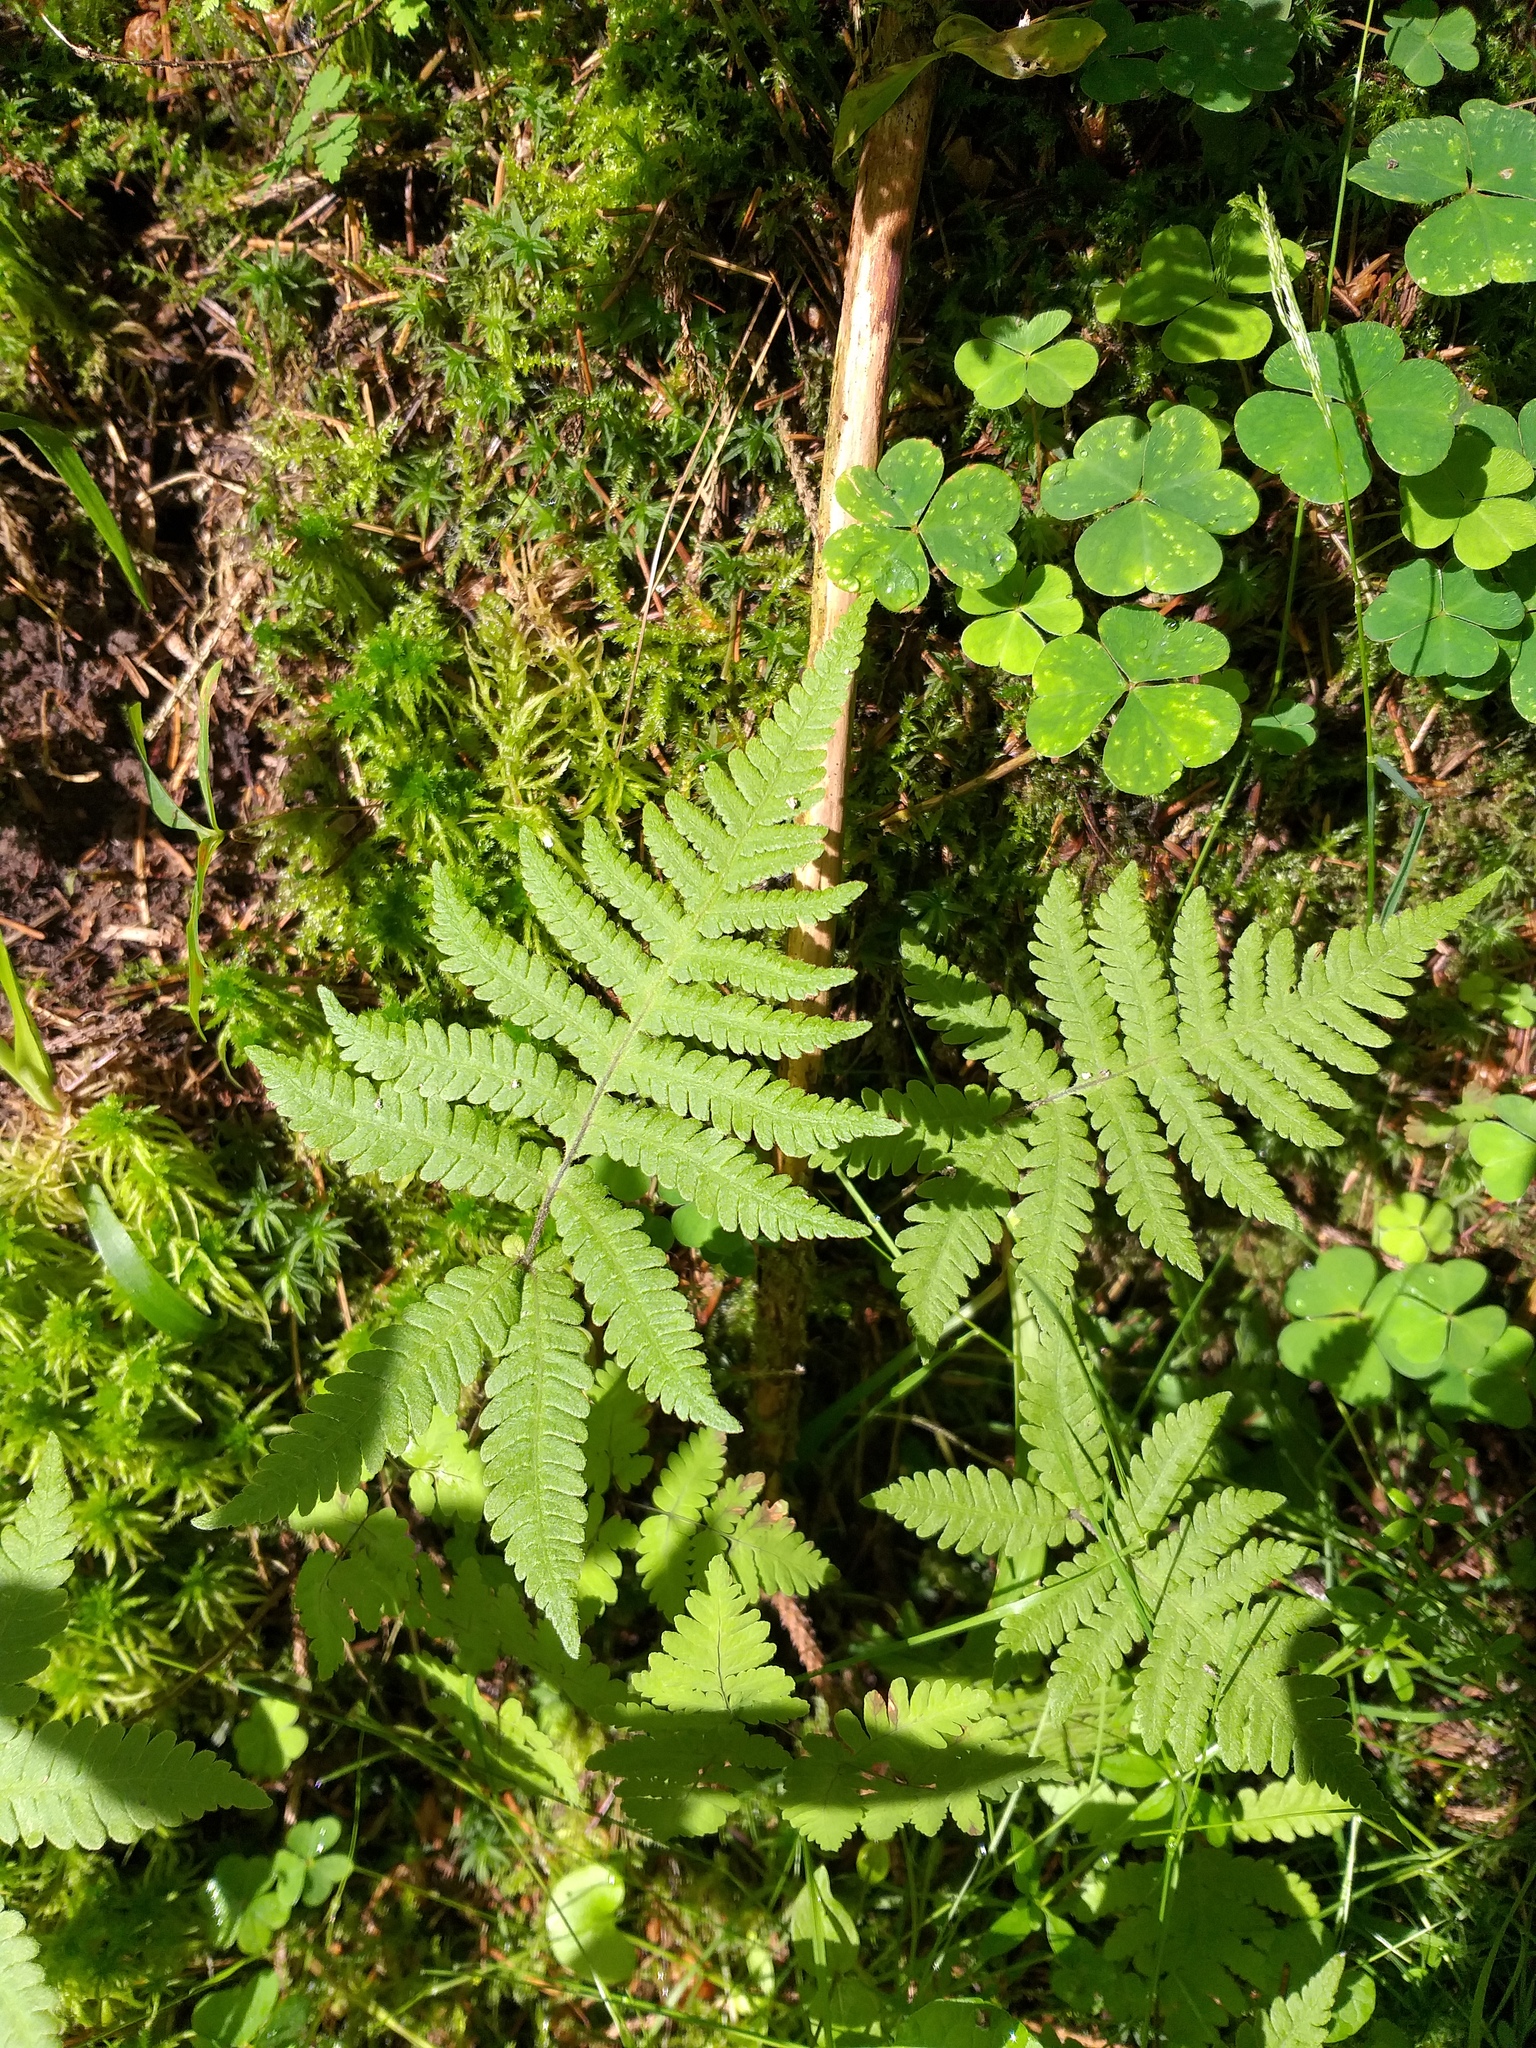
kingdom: Plantae
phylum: Tracheophyta
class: Polypodiopsida
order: Polypodiales
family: Thelypteridaceae
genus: Phegopteris
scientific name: Phegopteris connectilis
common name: Beech fern
